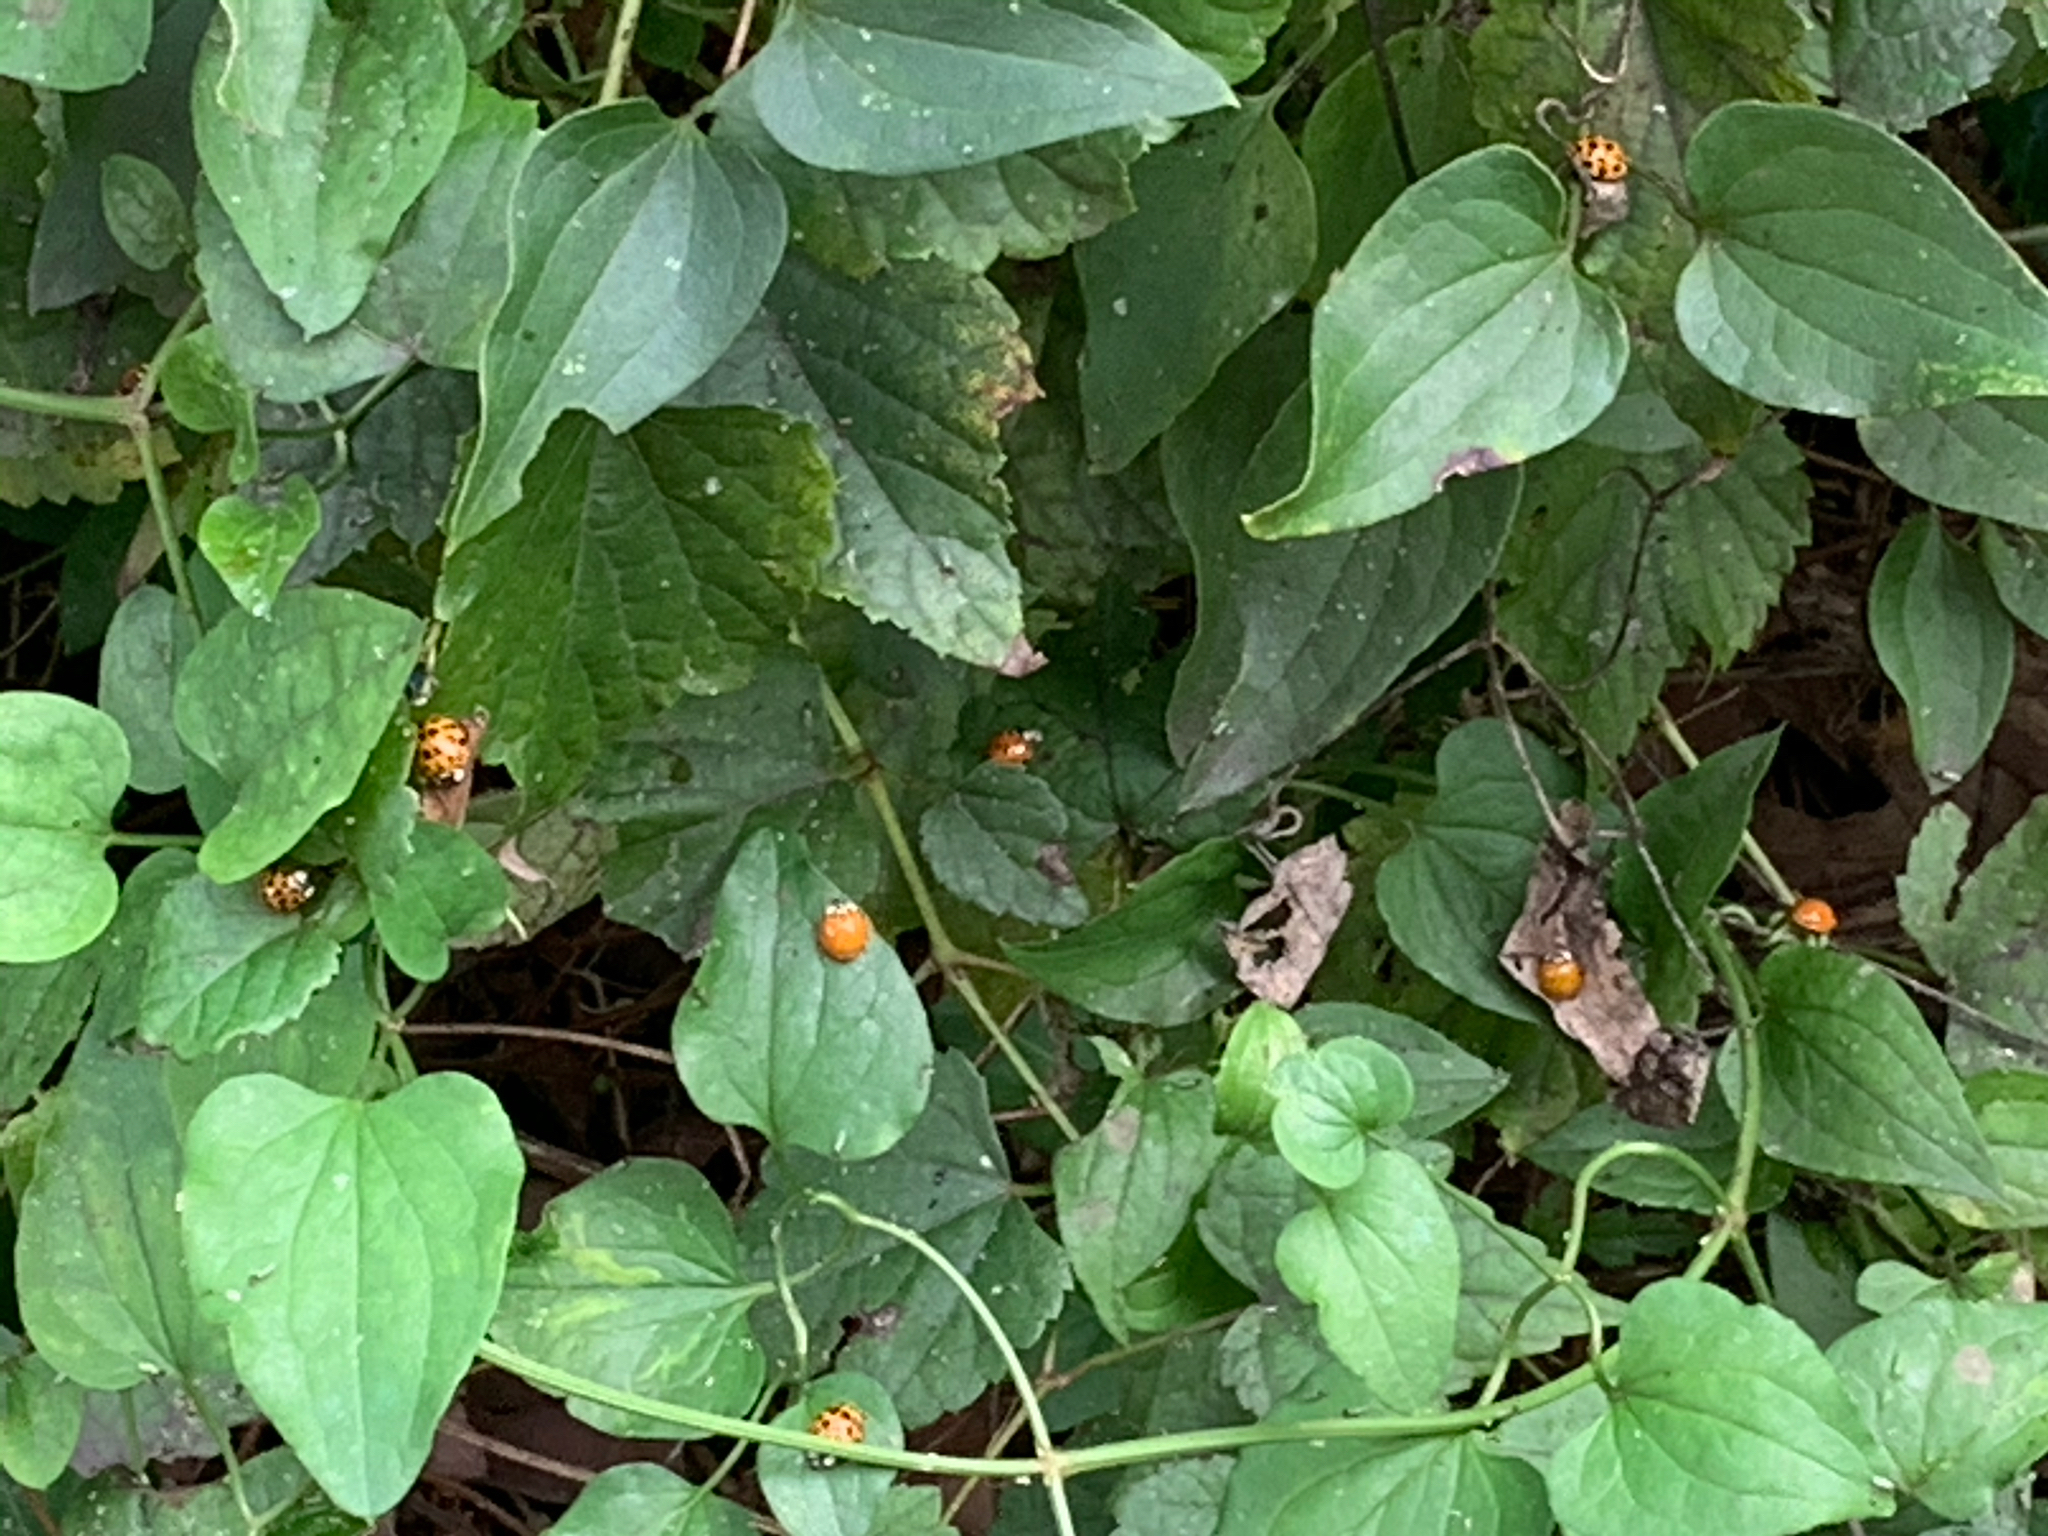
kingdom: Animalia
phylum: Arthropoda
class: Insecta
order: Coleoptera
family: Coccinellidae
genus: Harmonia
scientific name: Harmonia axyridis
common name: Harlequin ladybird
